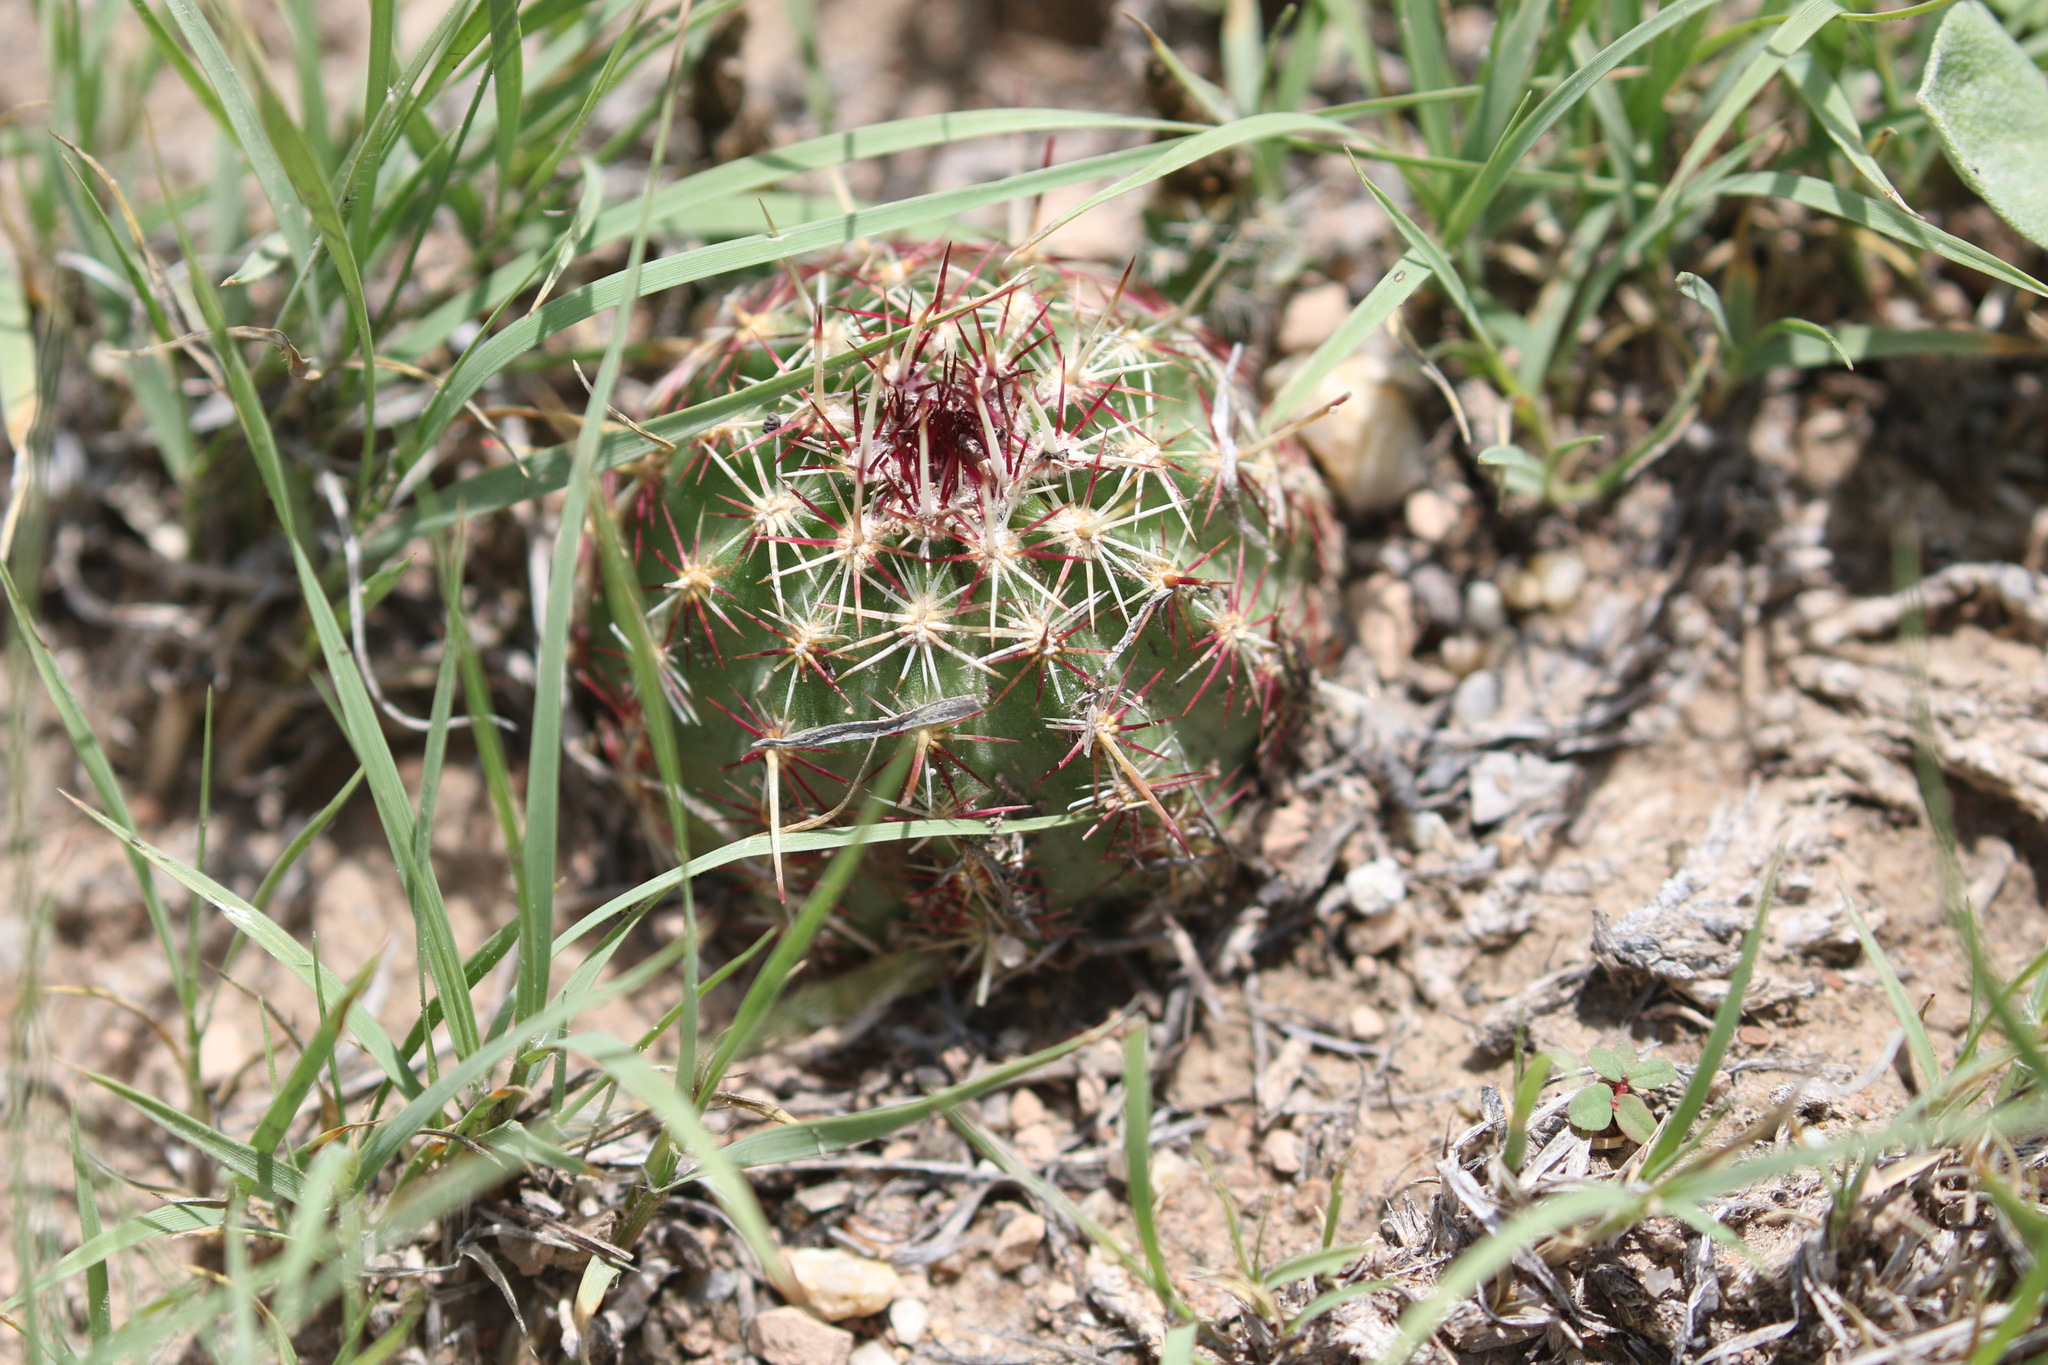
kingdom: Plantae
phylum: Tracheophyta
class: Magnoliopsida
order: Caryophyllales
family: Cactaceae
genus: Echinocereus
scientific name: Echinocereus viridiflorus
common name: Nylon hedgehog cactus
